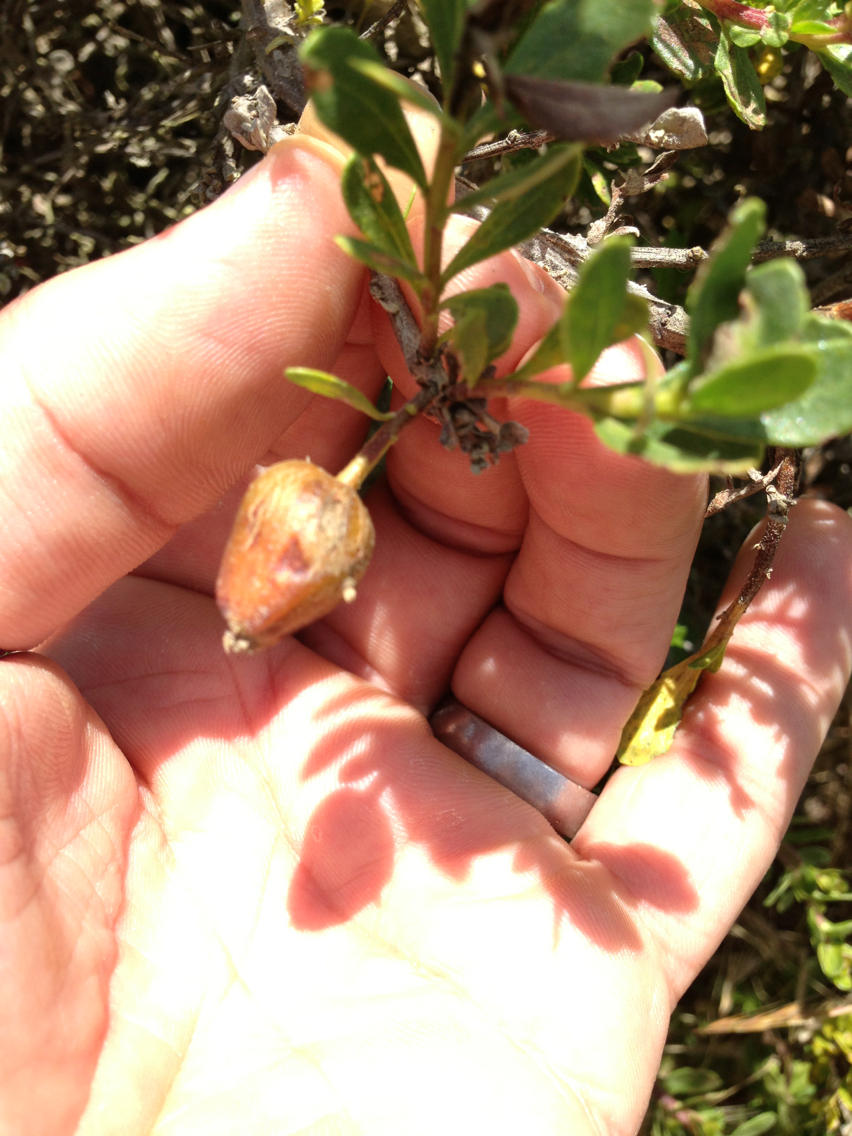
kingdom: Animalia
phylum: Arthropoda
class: Insecta
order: Lepidoptera
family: Gelechiidae
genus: Gnorimoschema
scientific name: Gnorimoschema baccharisella
